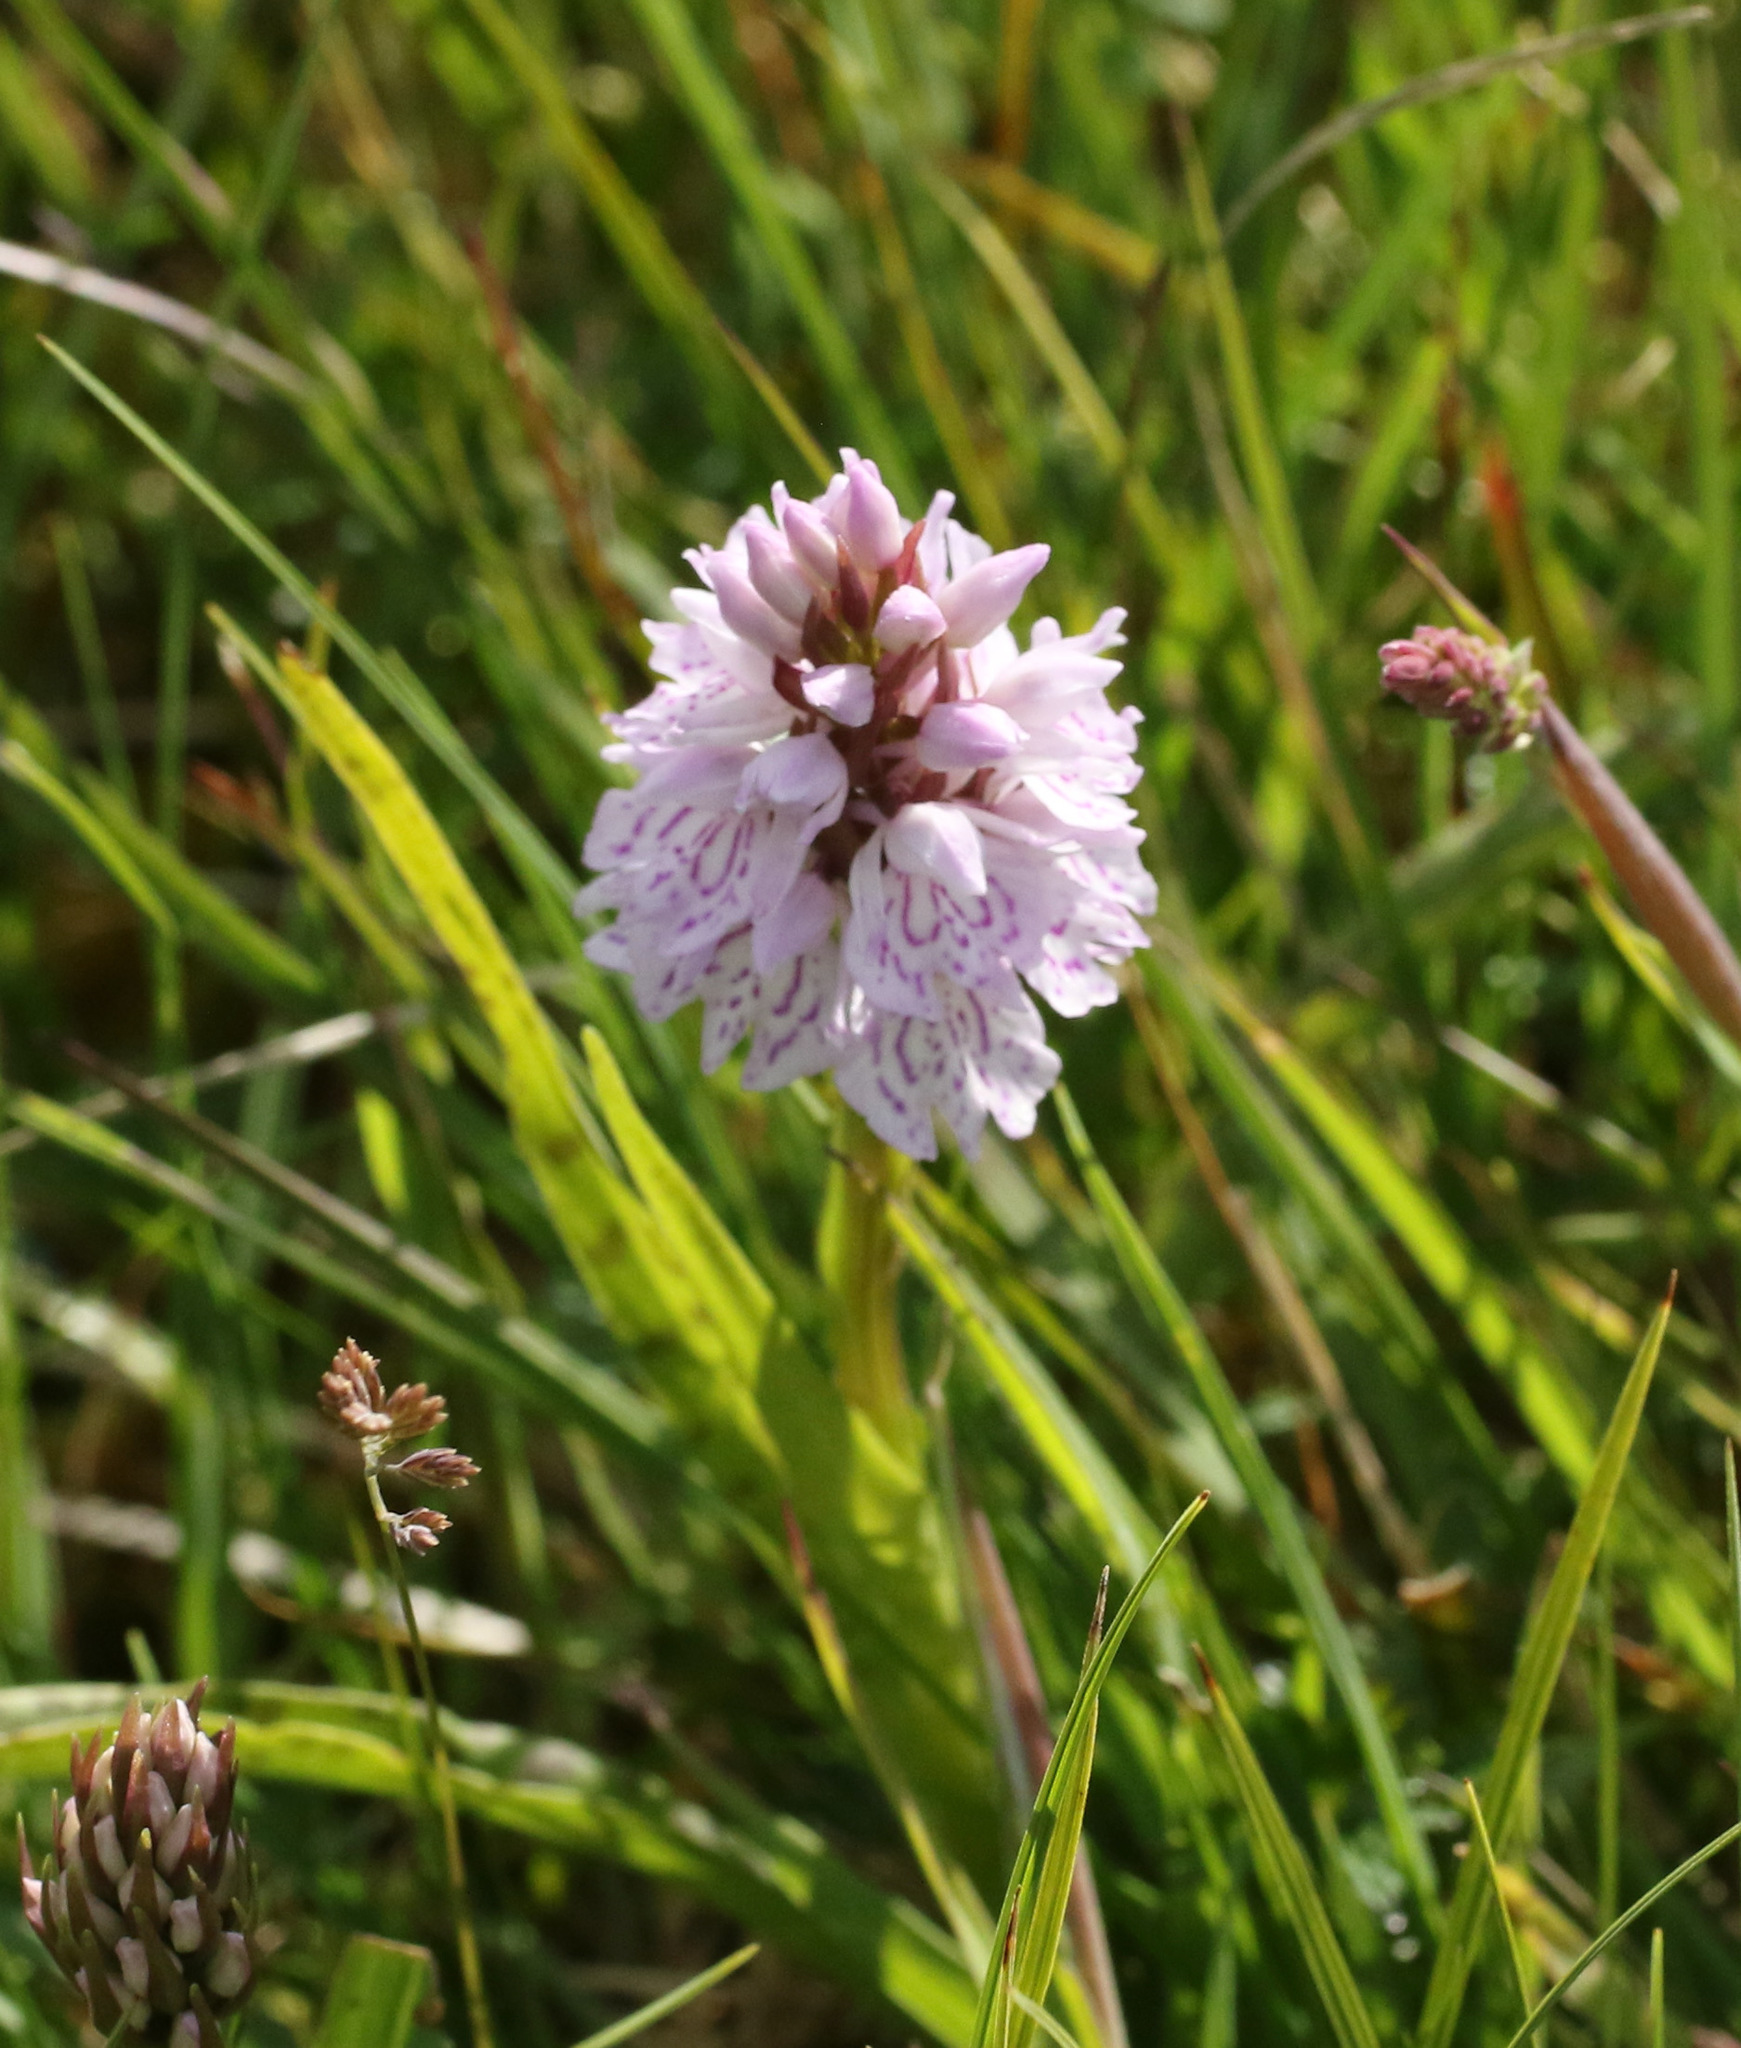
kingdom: Plantae
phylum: Tracheophyta
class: Liliopsida
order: Asparagales
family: Orchidaceae
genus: Dactylorhiza
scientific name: Dactylorhiza maculata
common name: Heath spotted-orchid
